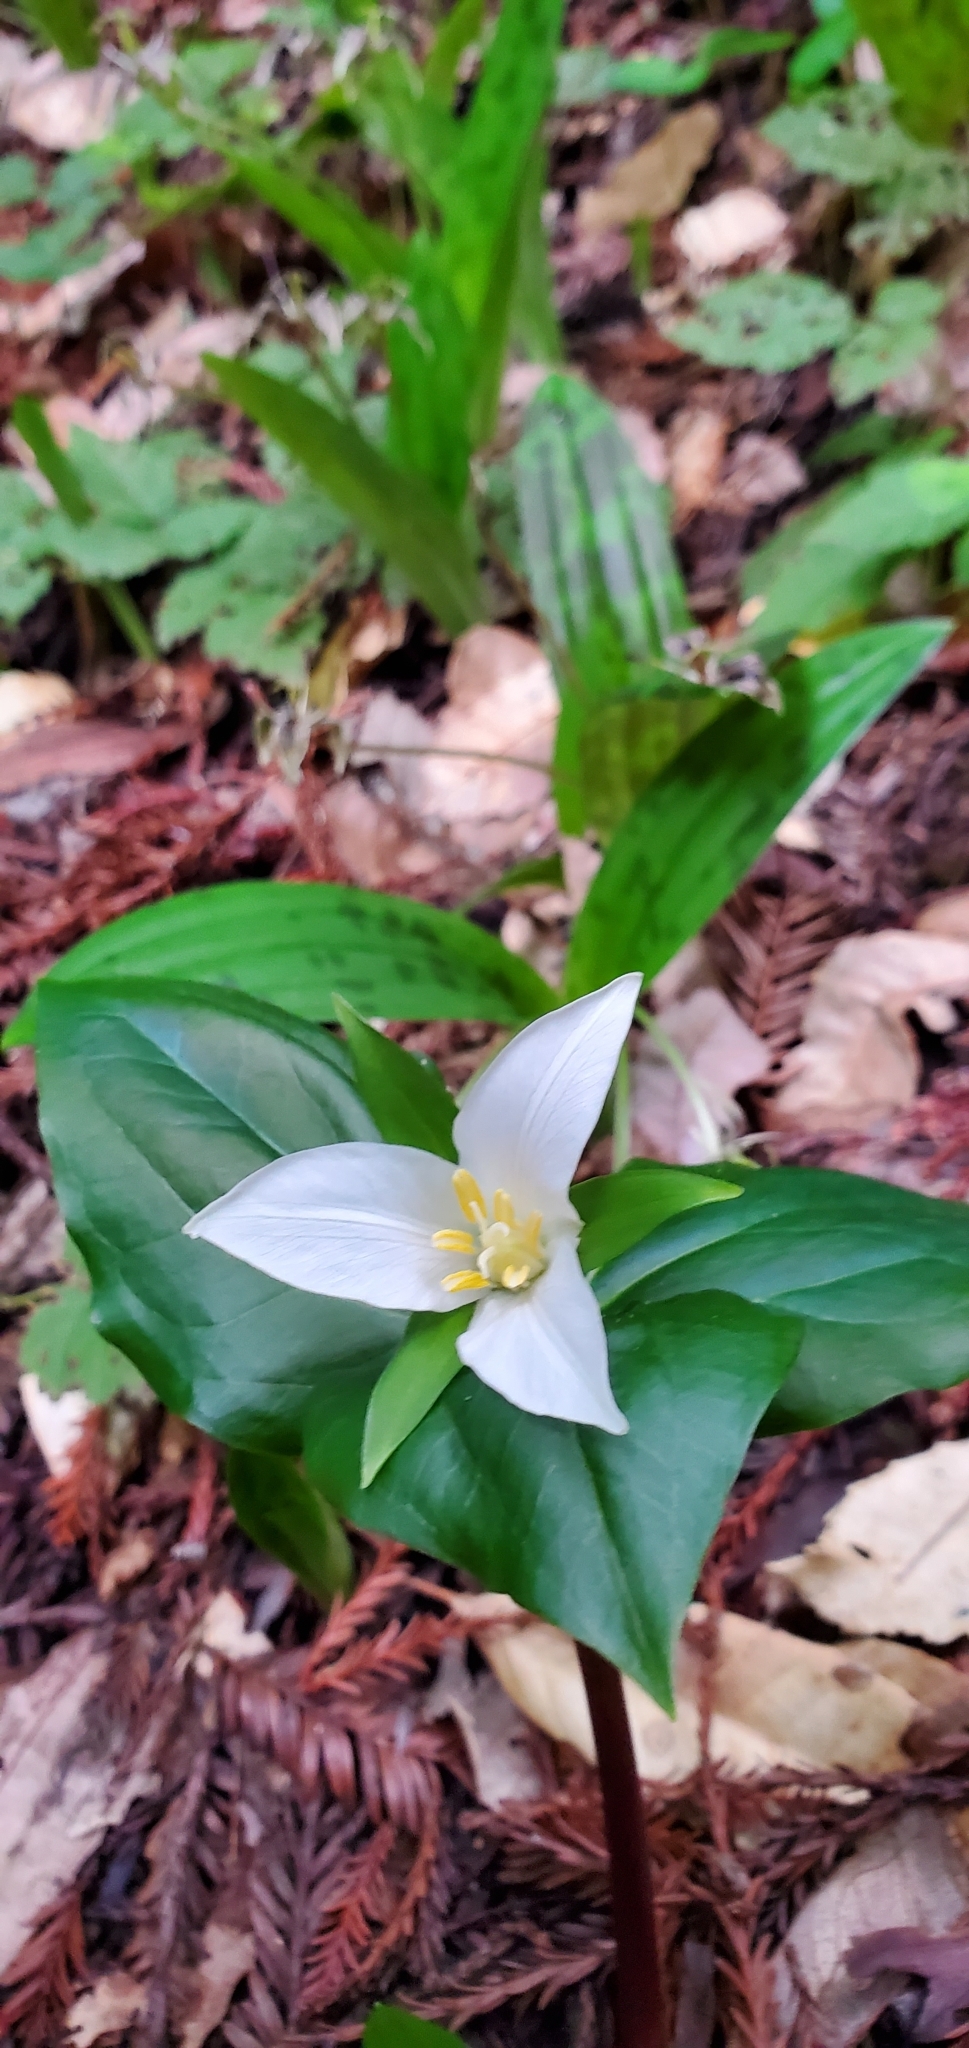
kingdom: Plantae
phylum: Tracheophyta
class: Liliopsida
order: Liliales
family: Melanthiaceae
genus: Trillium
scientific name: Trillium ovatum
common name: Pacific trillium
